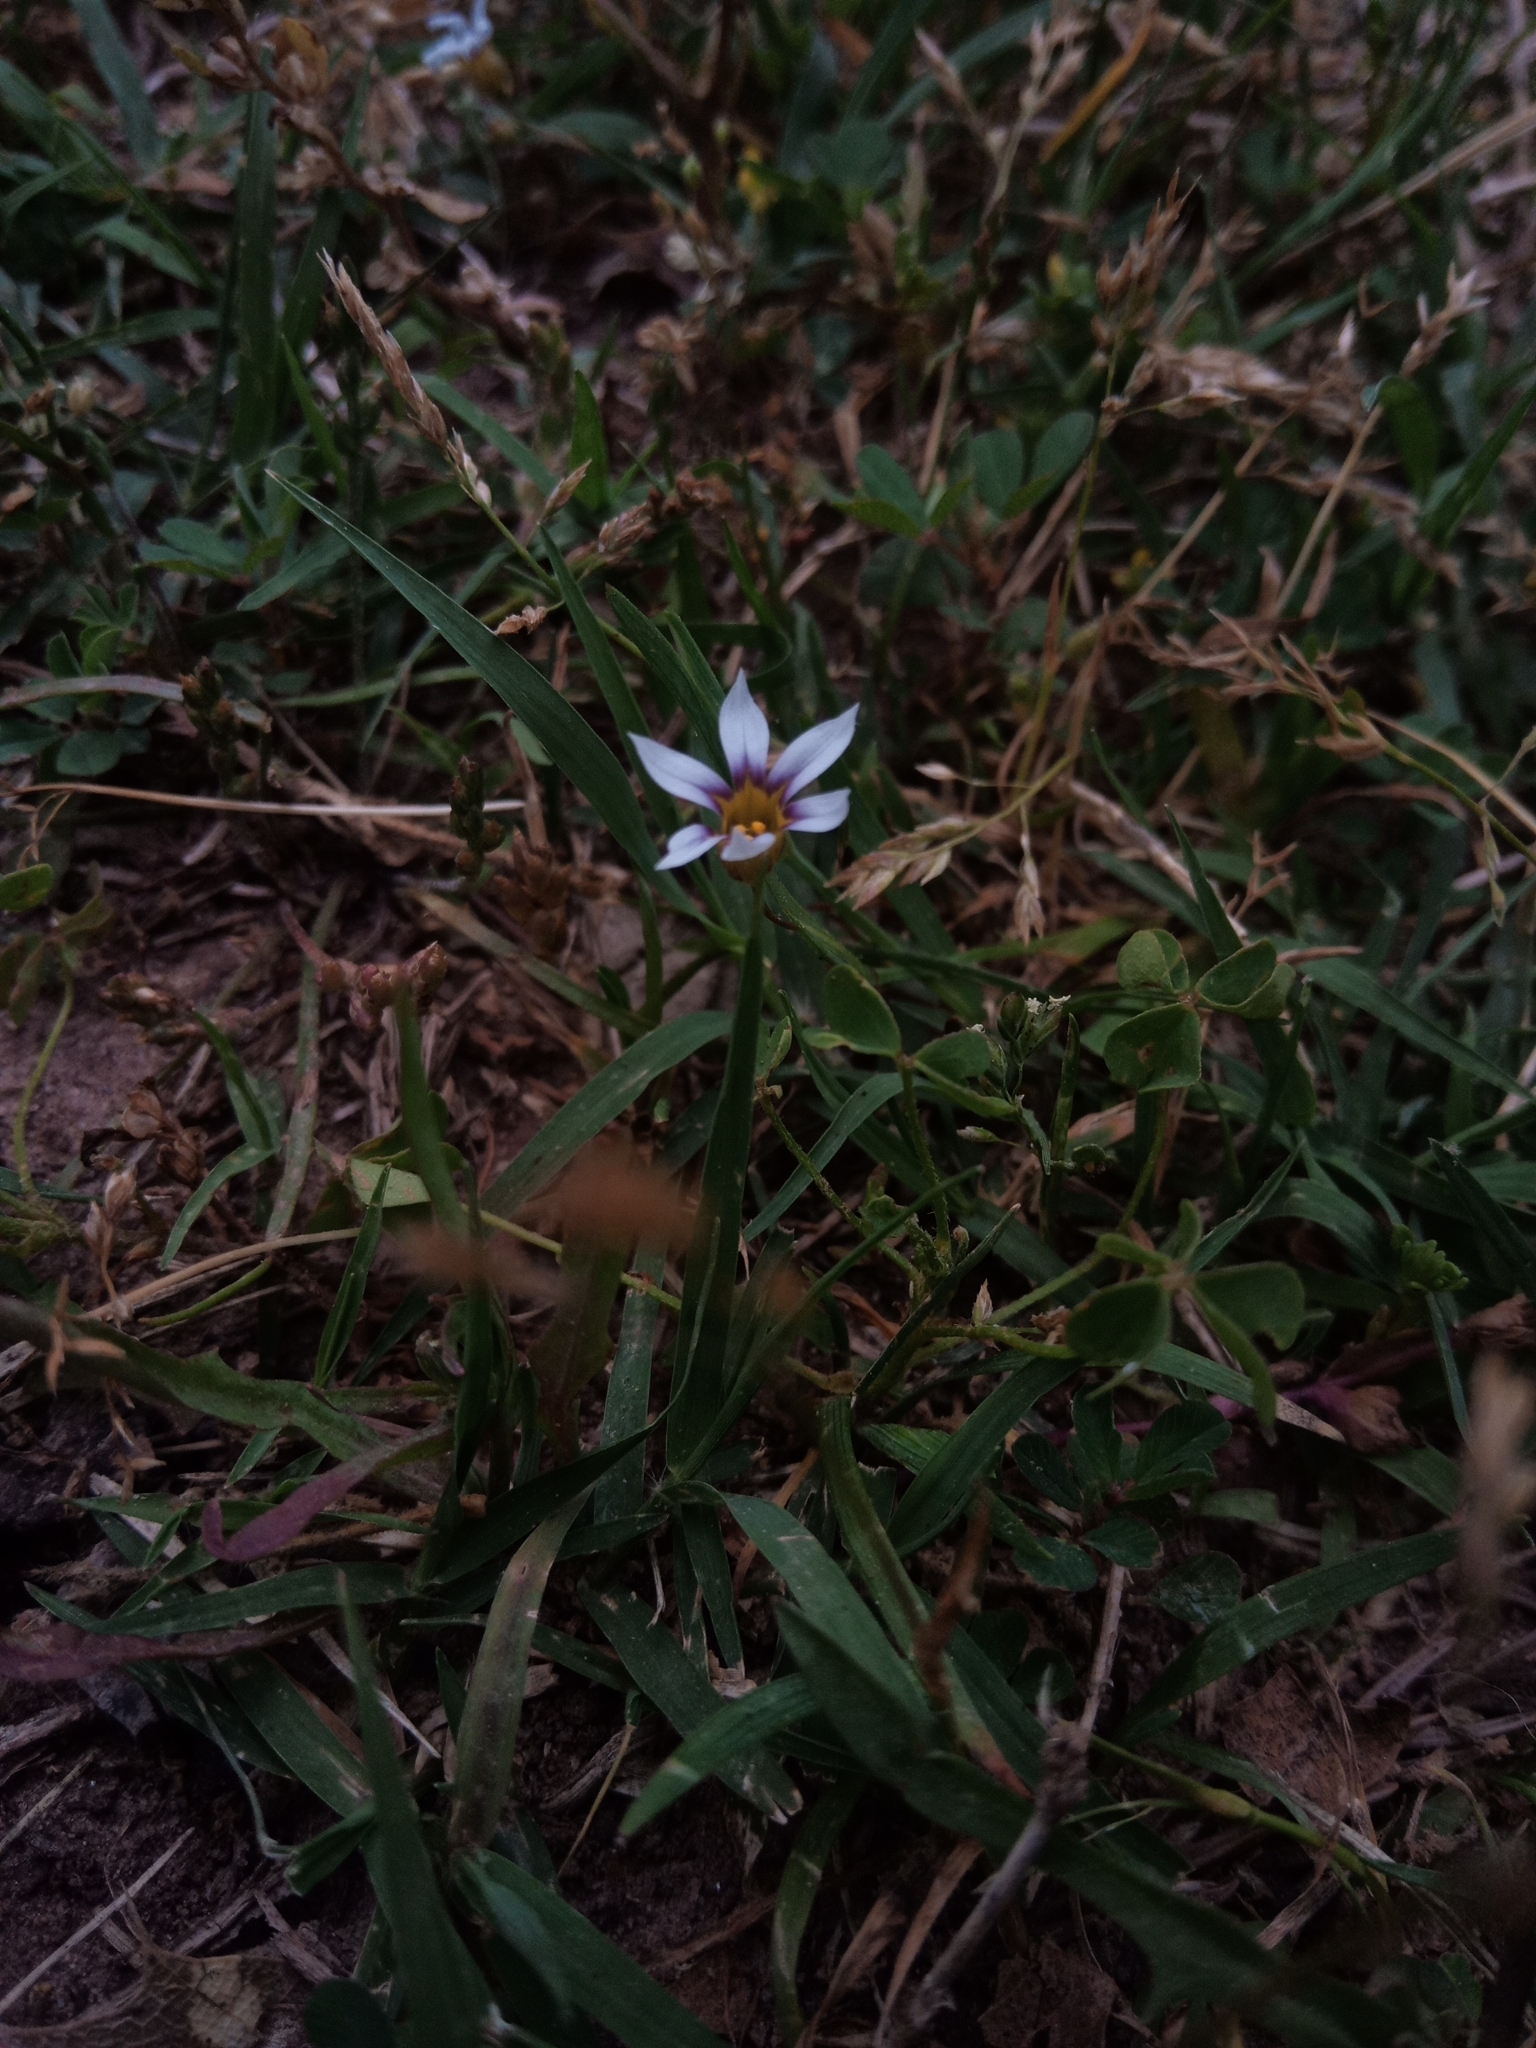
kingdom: Plantae
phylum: Tracheophyta
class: Liliopsida
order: Asparagales
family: Iridaceae
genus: Sisyrinchium
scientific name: Sisyrinchium micranthum
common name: Bermuda pigroot
